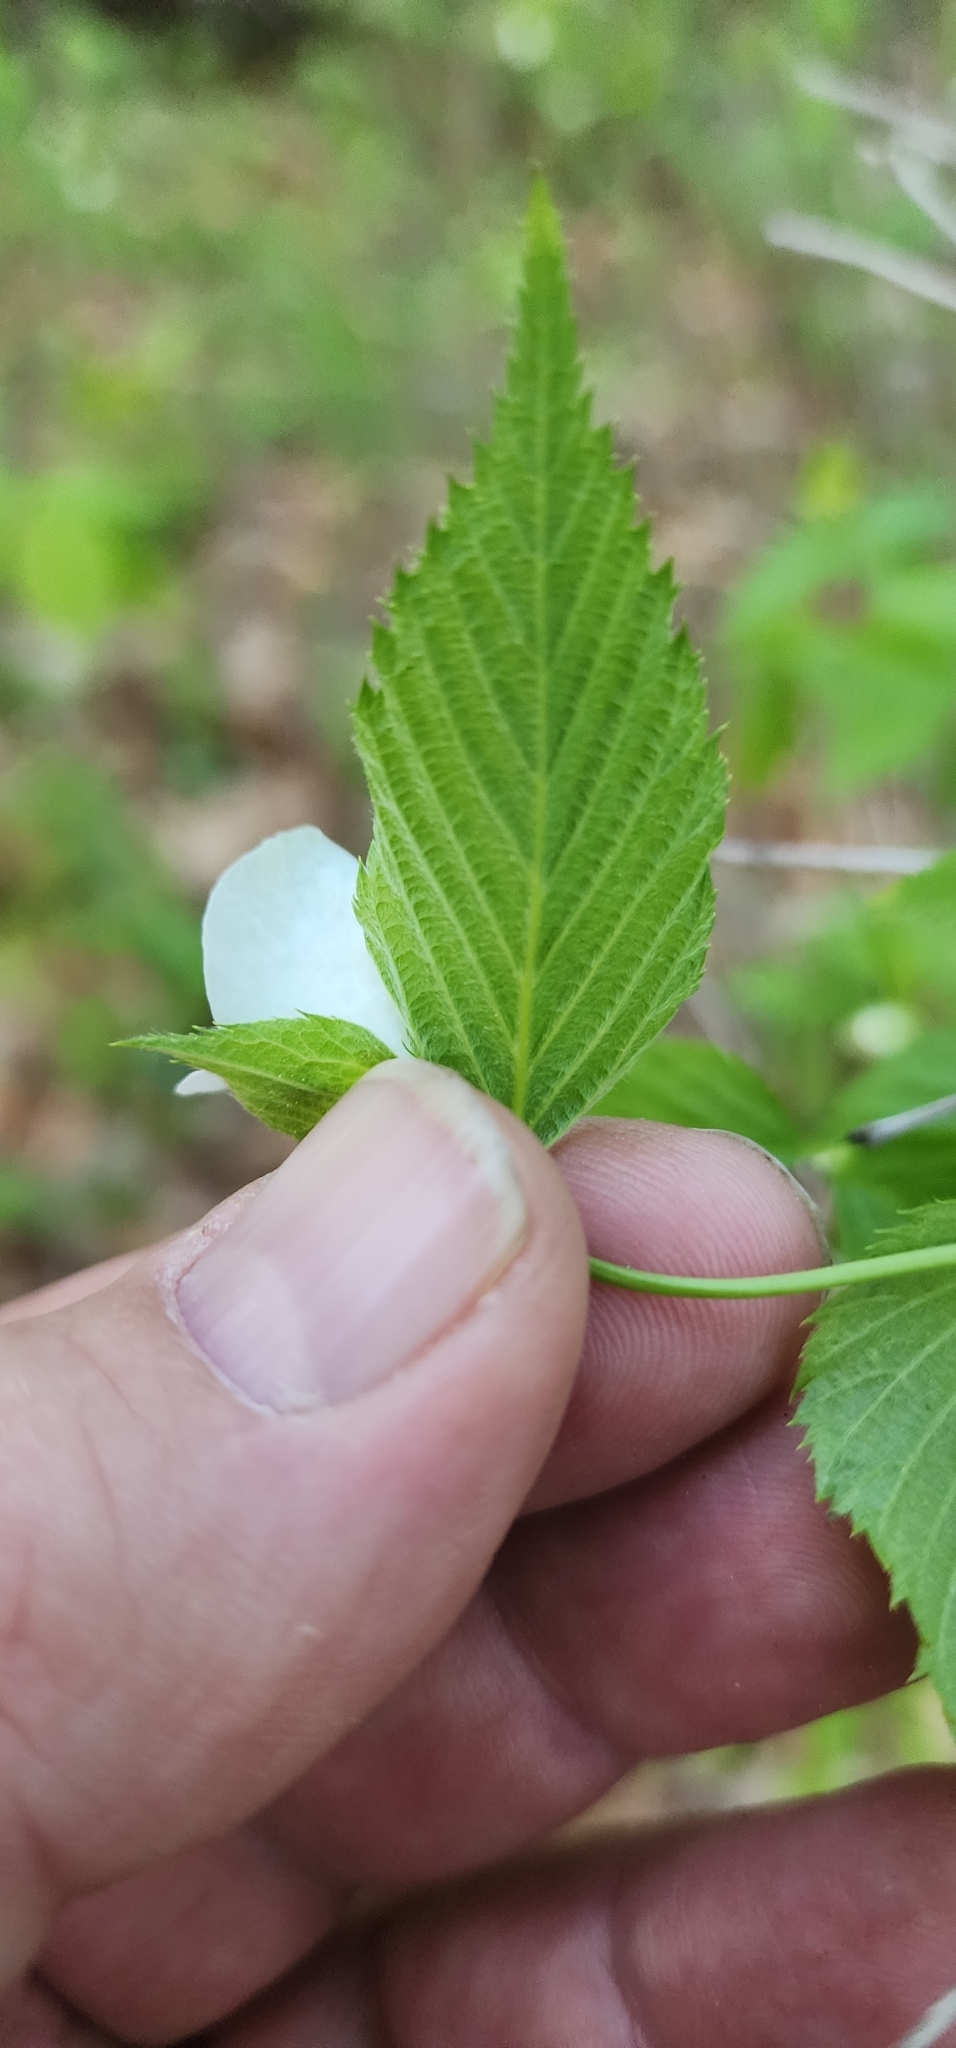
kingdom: Plantae
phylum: Tracheophyta
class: Magnoliopsida
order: Rosales
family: Rosaceae
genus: Rhodotypos
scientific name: Rhodotypos scandens
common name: Jetbead
